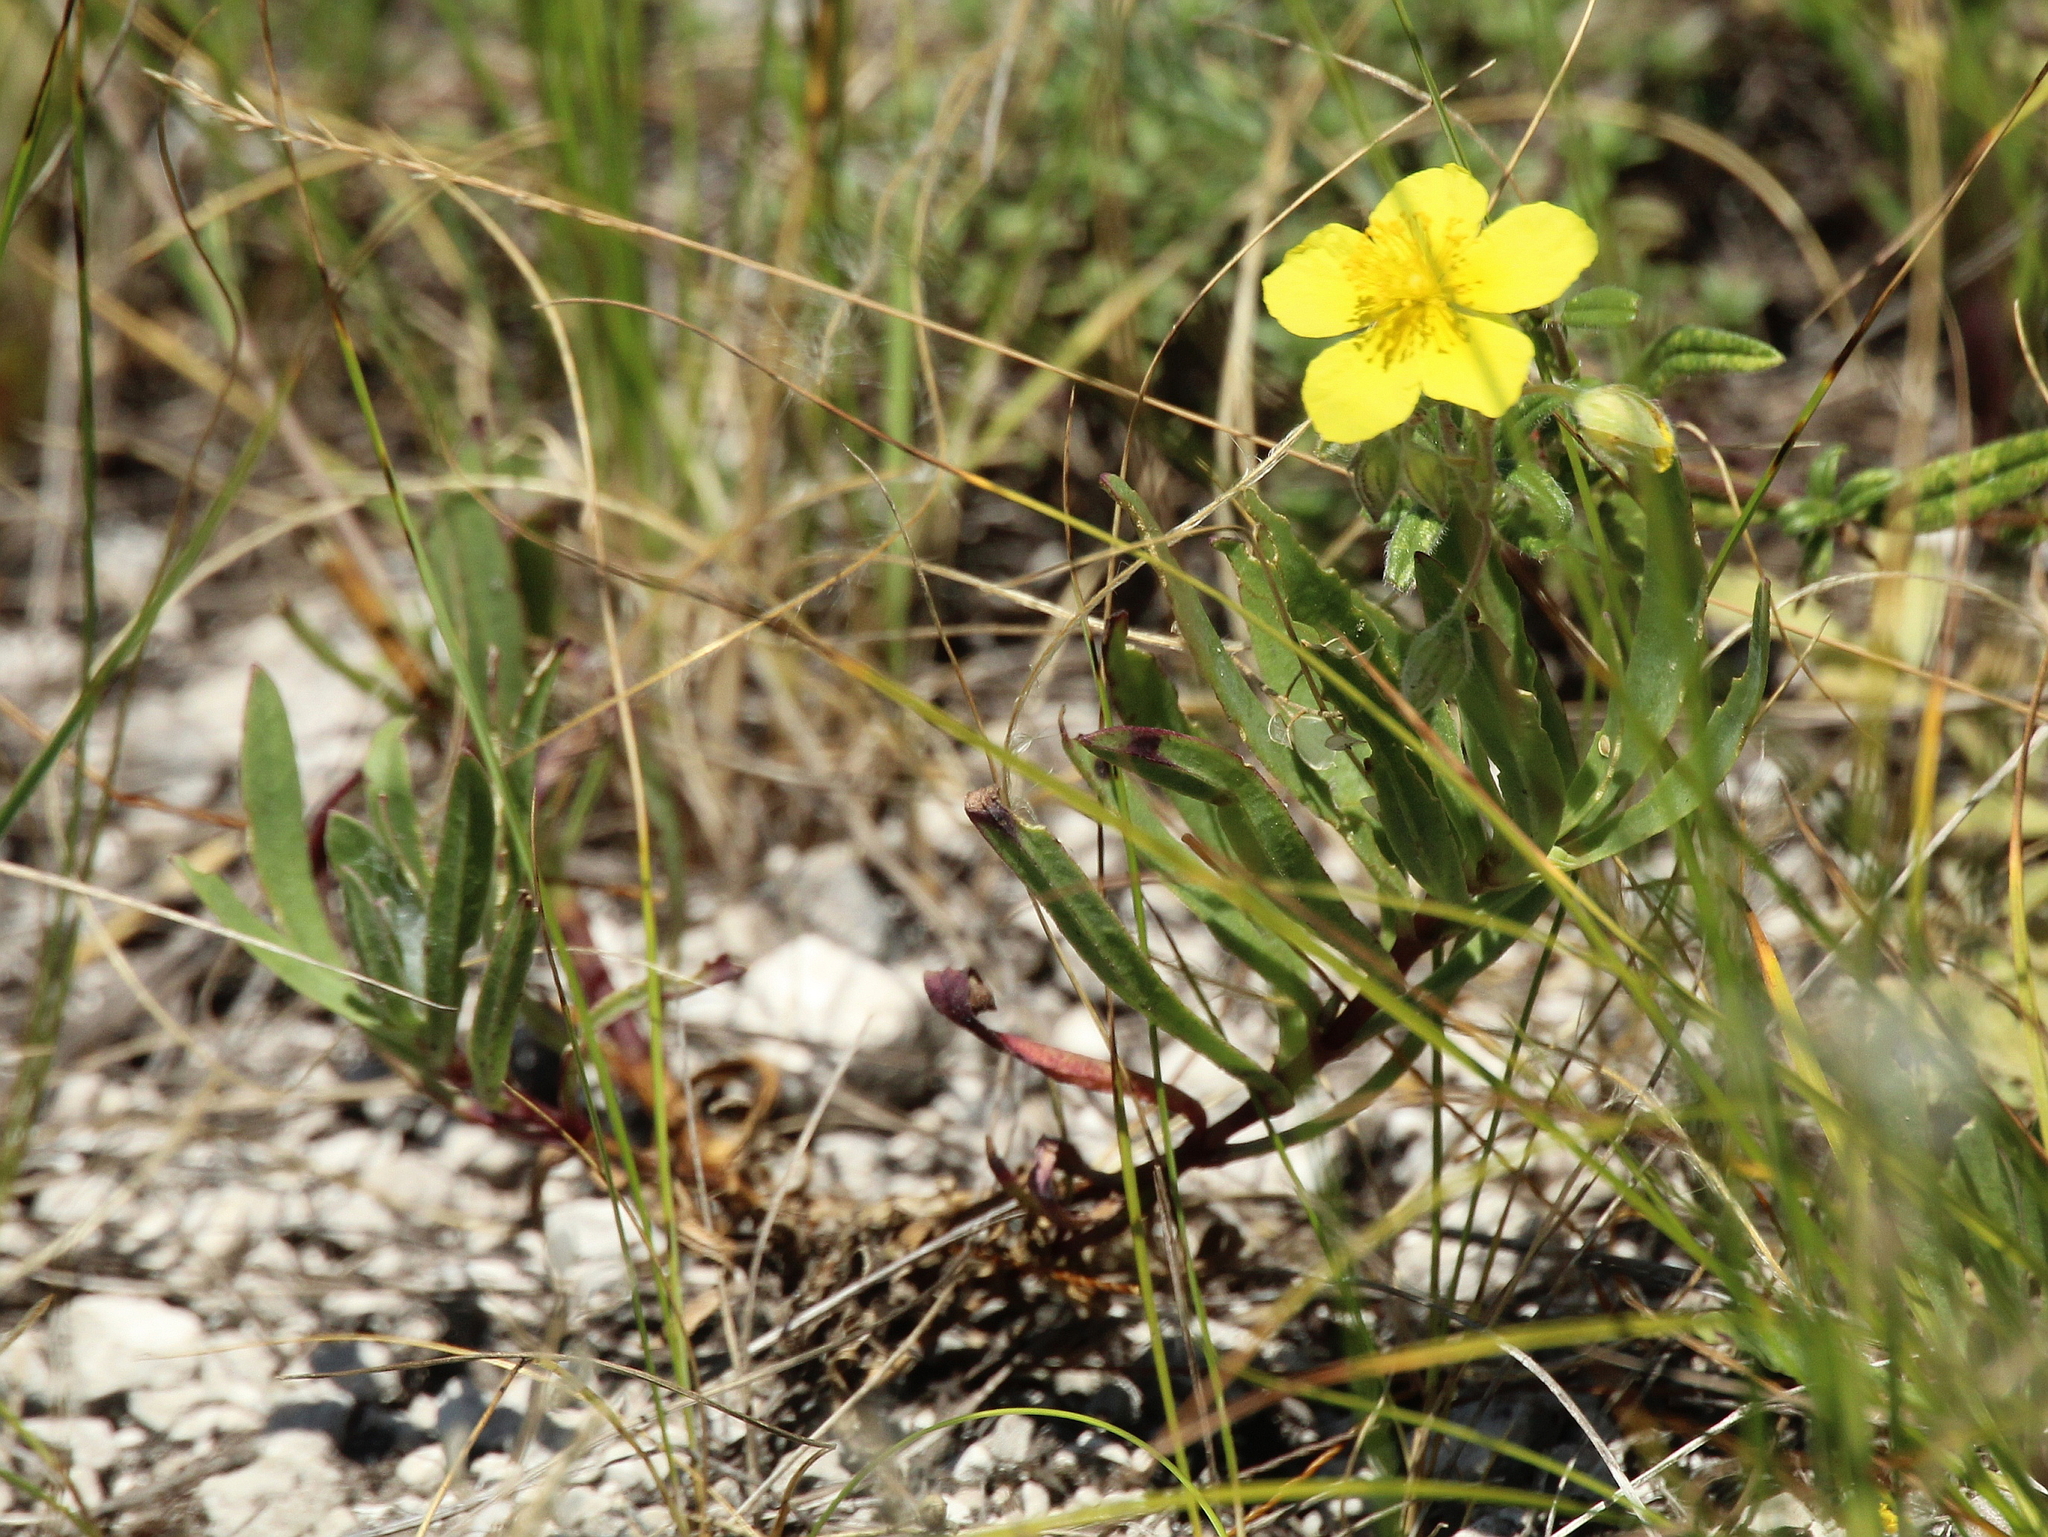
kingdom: Plantae
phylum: Tracheophyta
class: Magnoliopsida
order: Malvales
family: Cistaceae
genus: Helianthemum
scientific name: Helianthemum nummularium
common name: Common rock-rose
